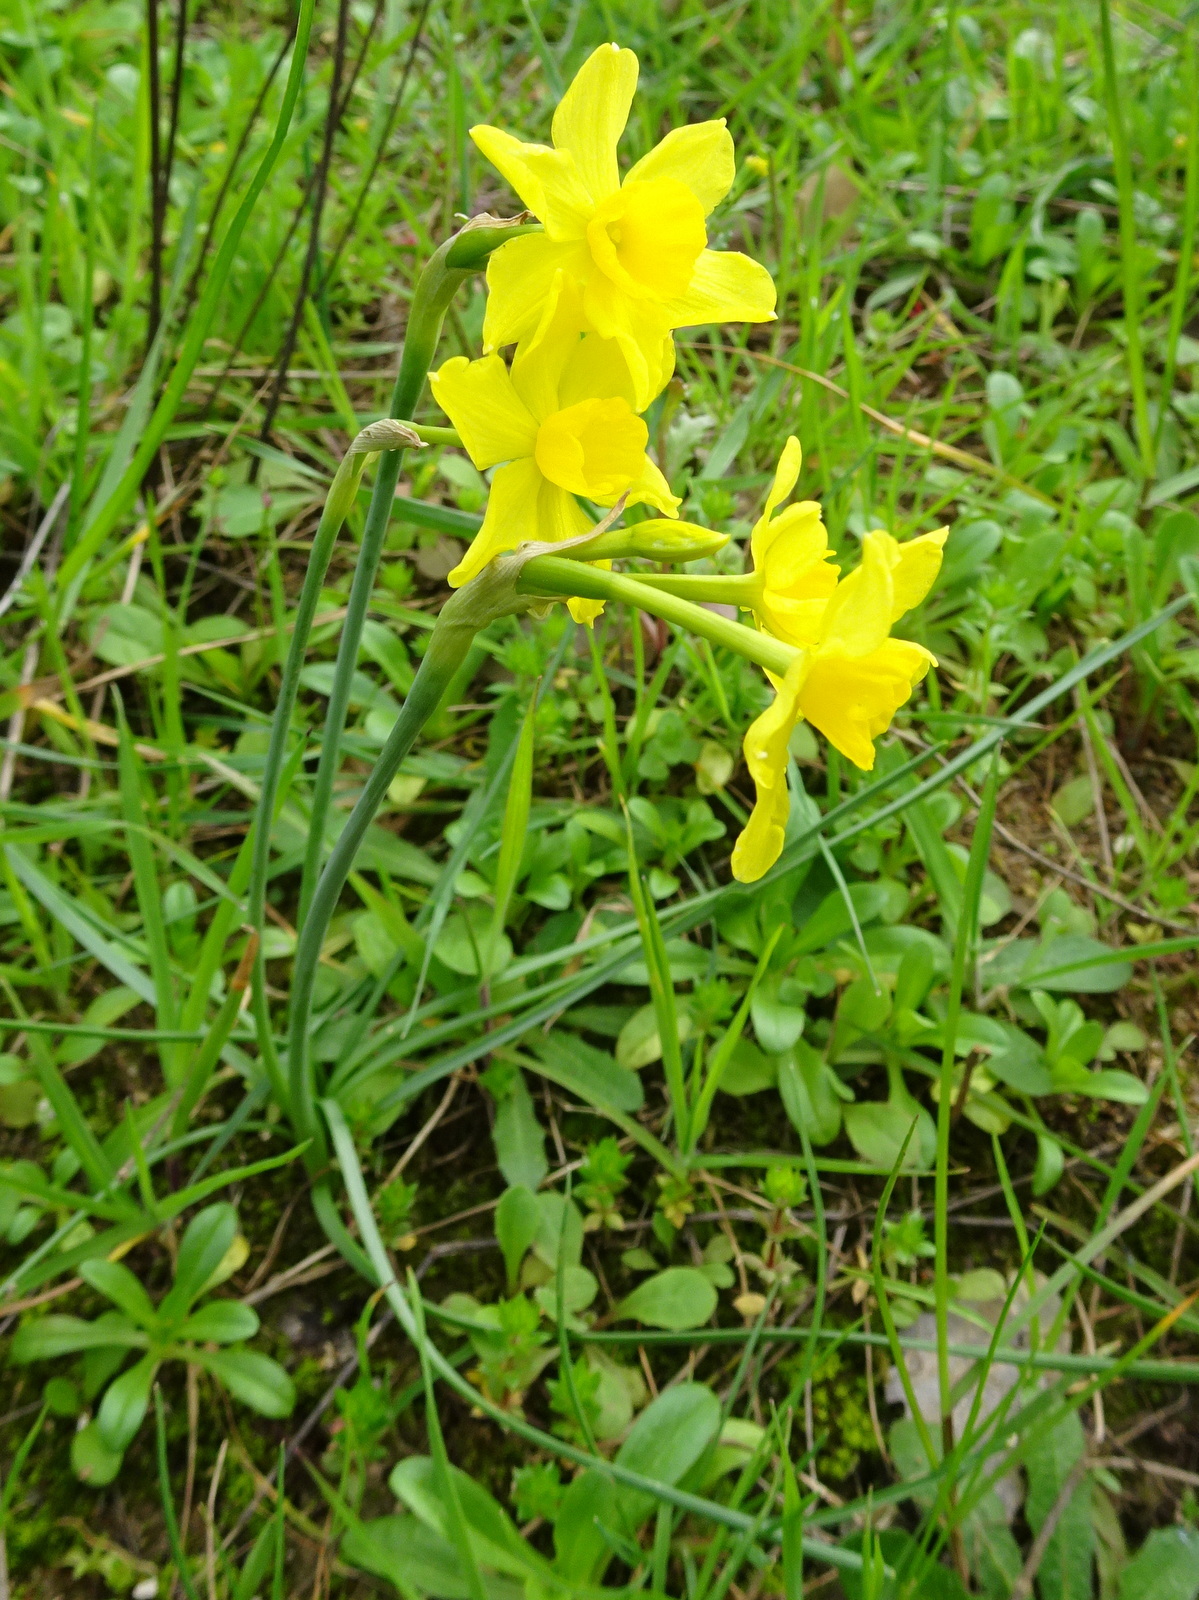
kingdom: Plantae
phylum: Tracheophyta
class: Liliopsida
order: Asparagales
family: Amaryllidaceae
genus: Narcissus
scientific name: Narcissus assoanus
